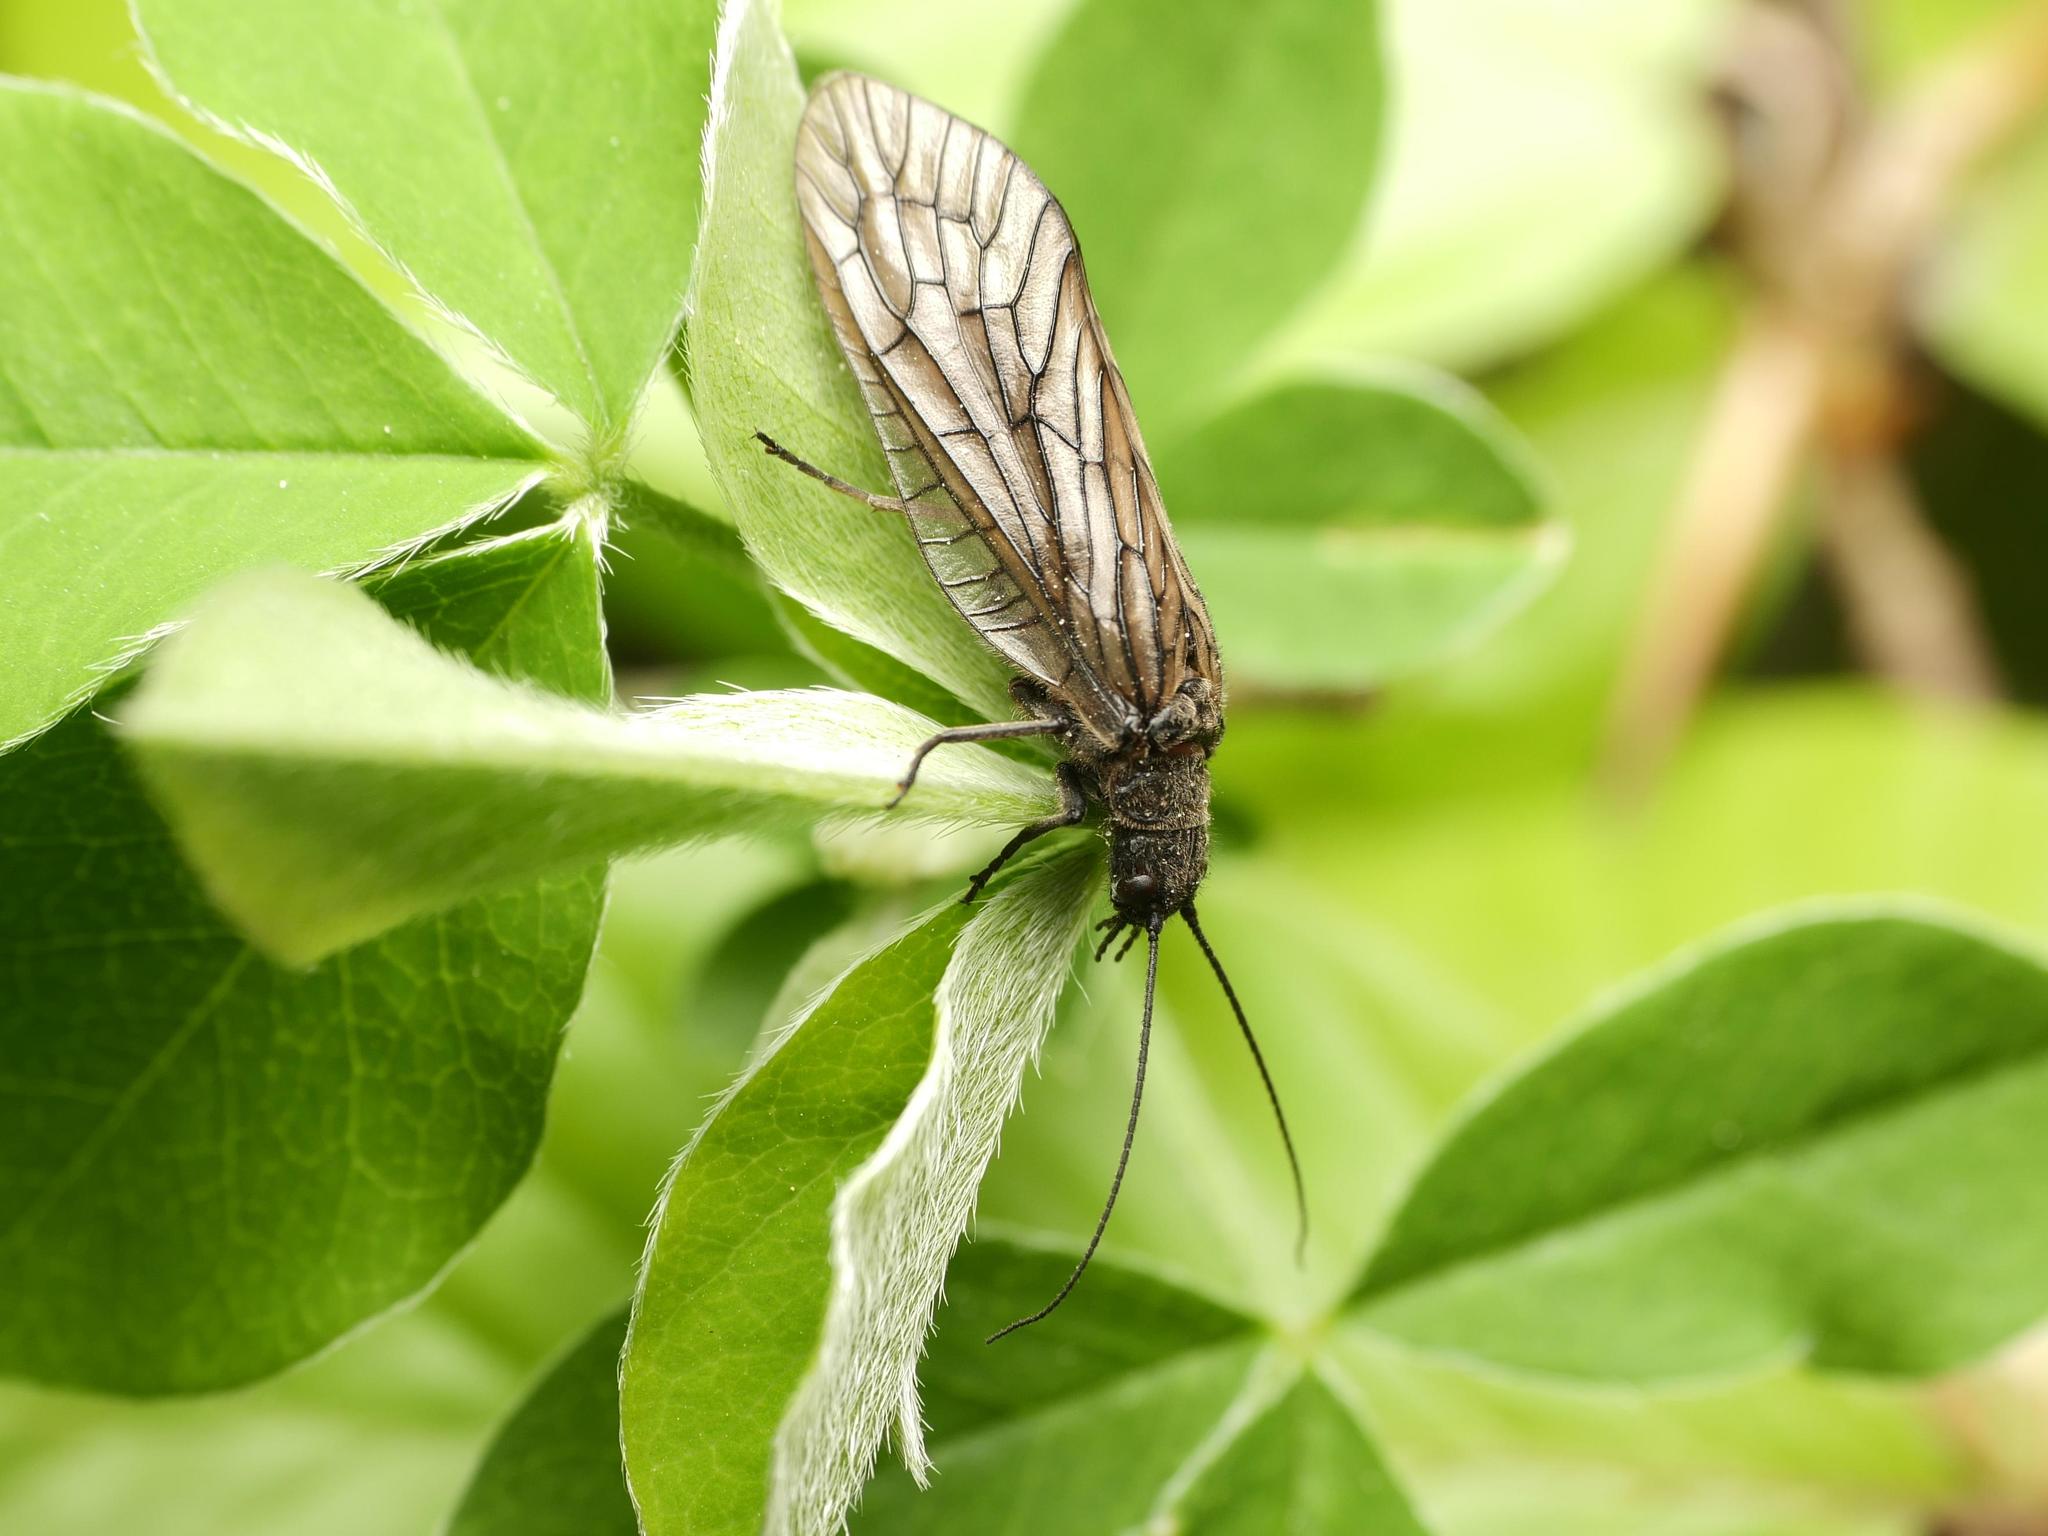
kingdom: Animalia
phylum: Arthropoda
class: Insecta
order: Megaloptera
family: Sialidae
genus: Sialis
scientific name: Sialis
